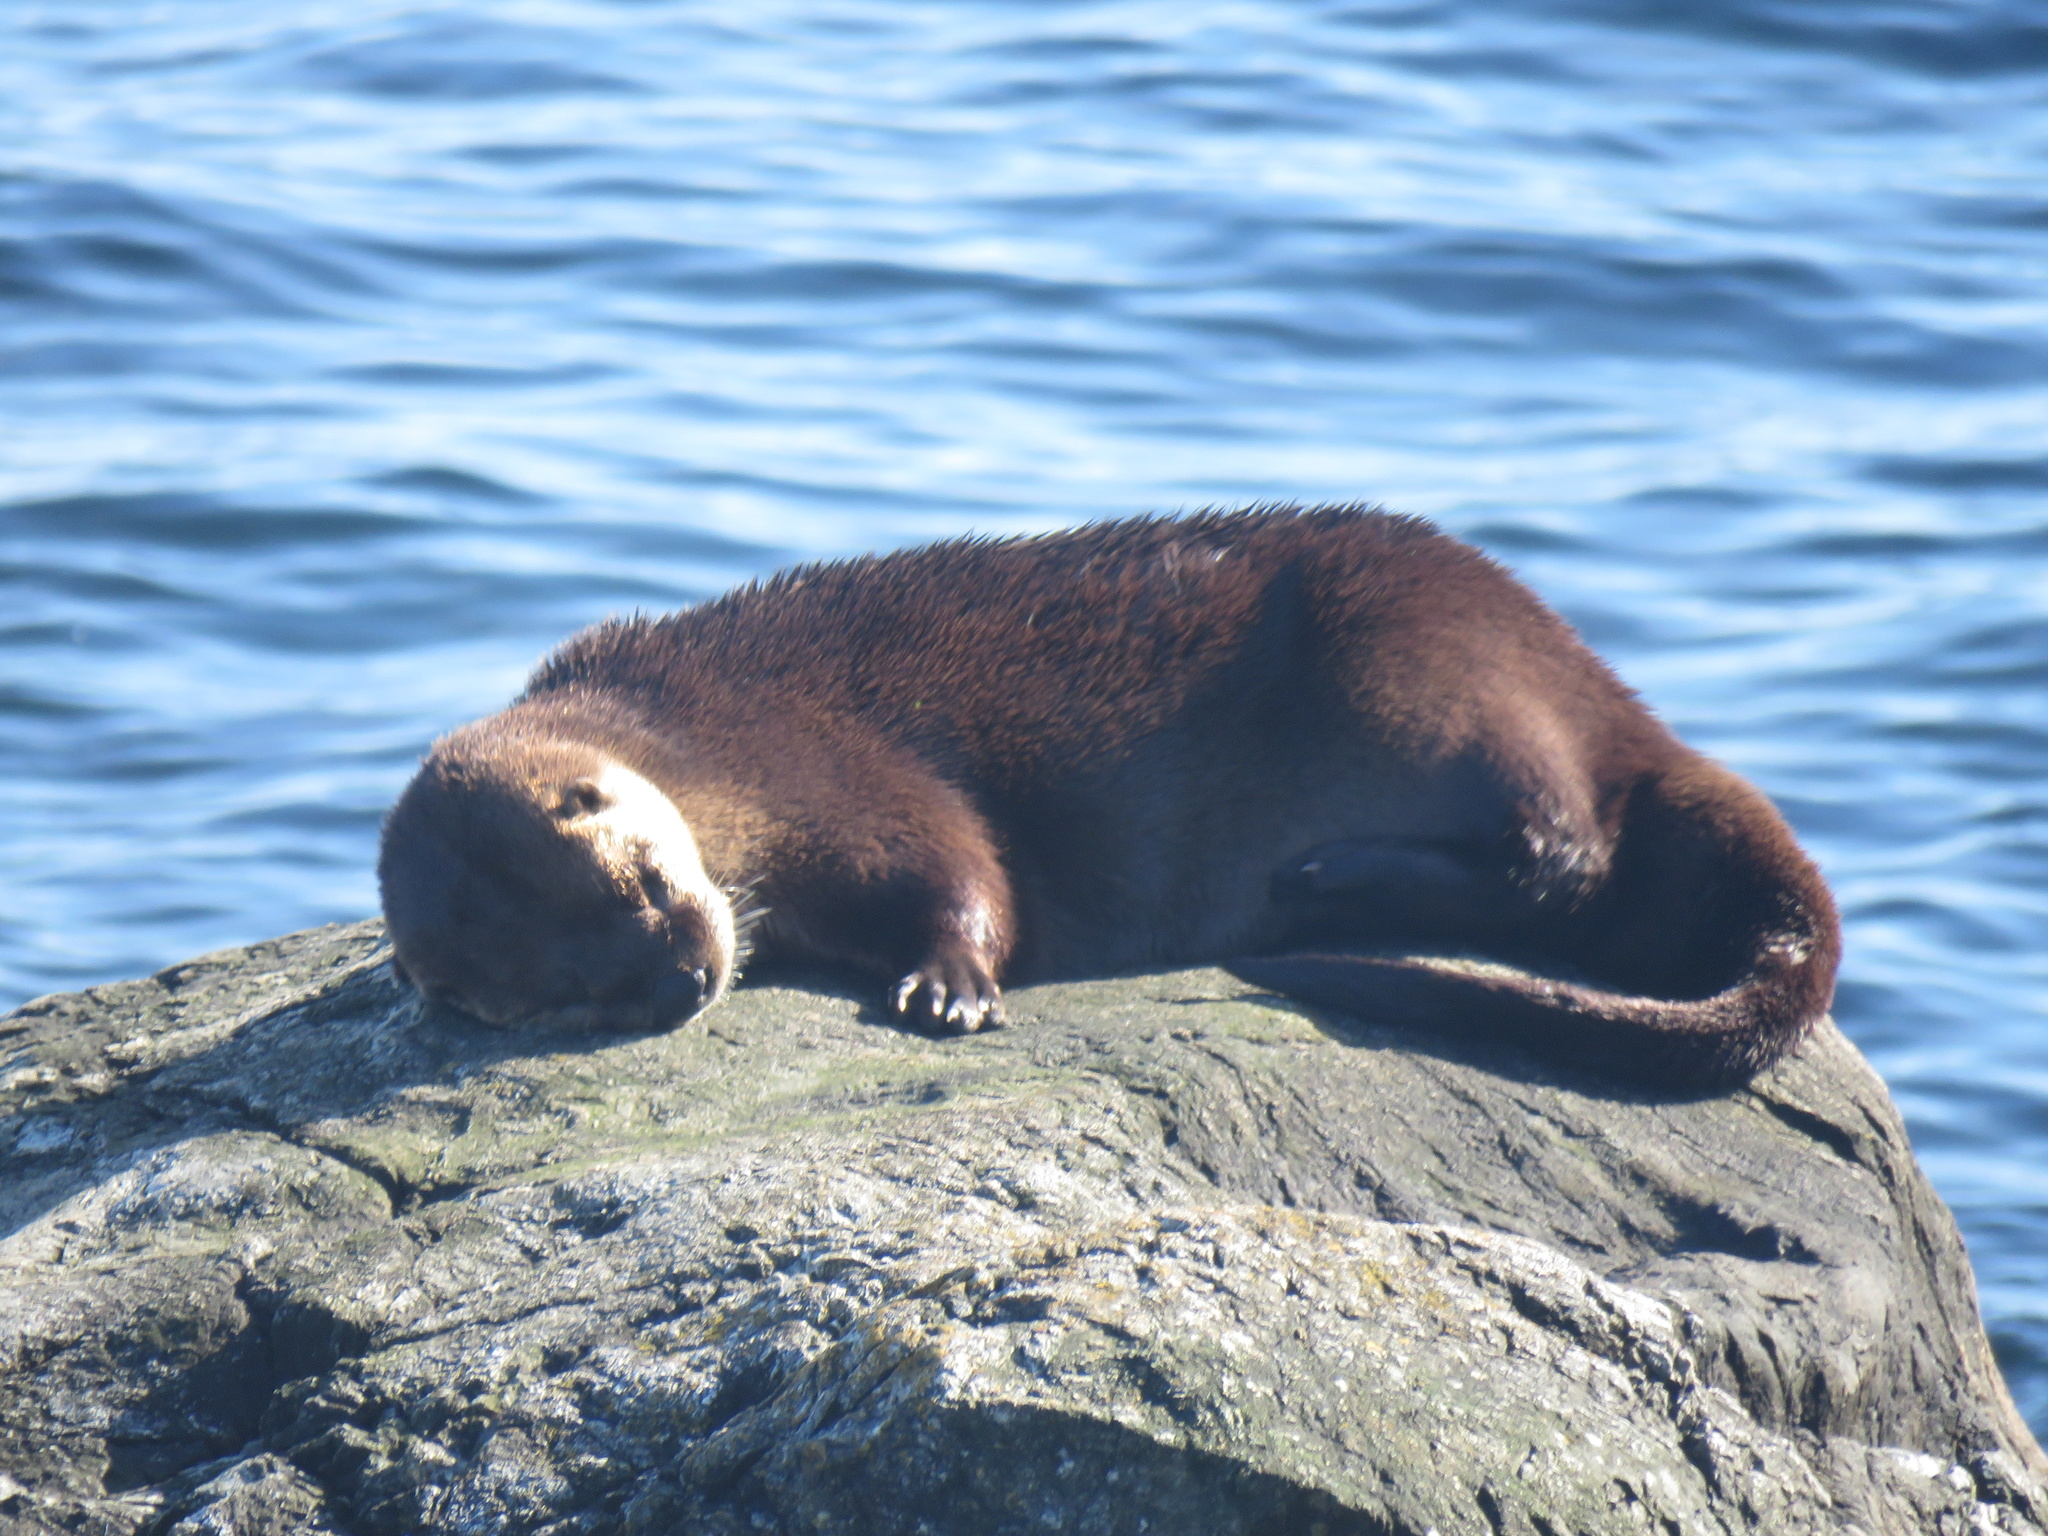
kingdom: Animalia
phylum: Chordata
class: Mammalia
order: Carnivora
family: Mustelidae
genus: Lontra
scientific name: Lontra canadensis
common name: North american river otter
